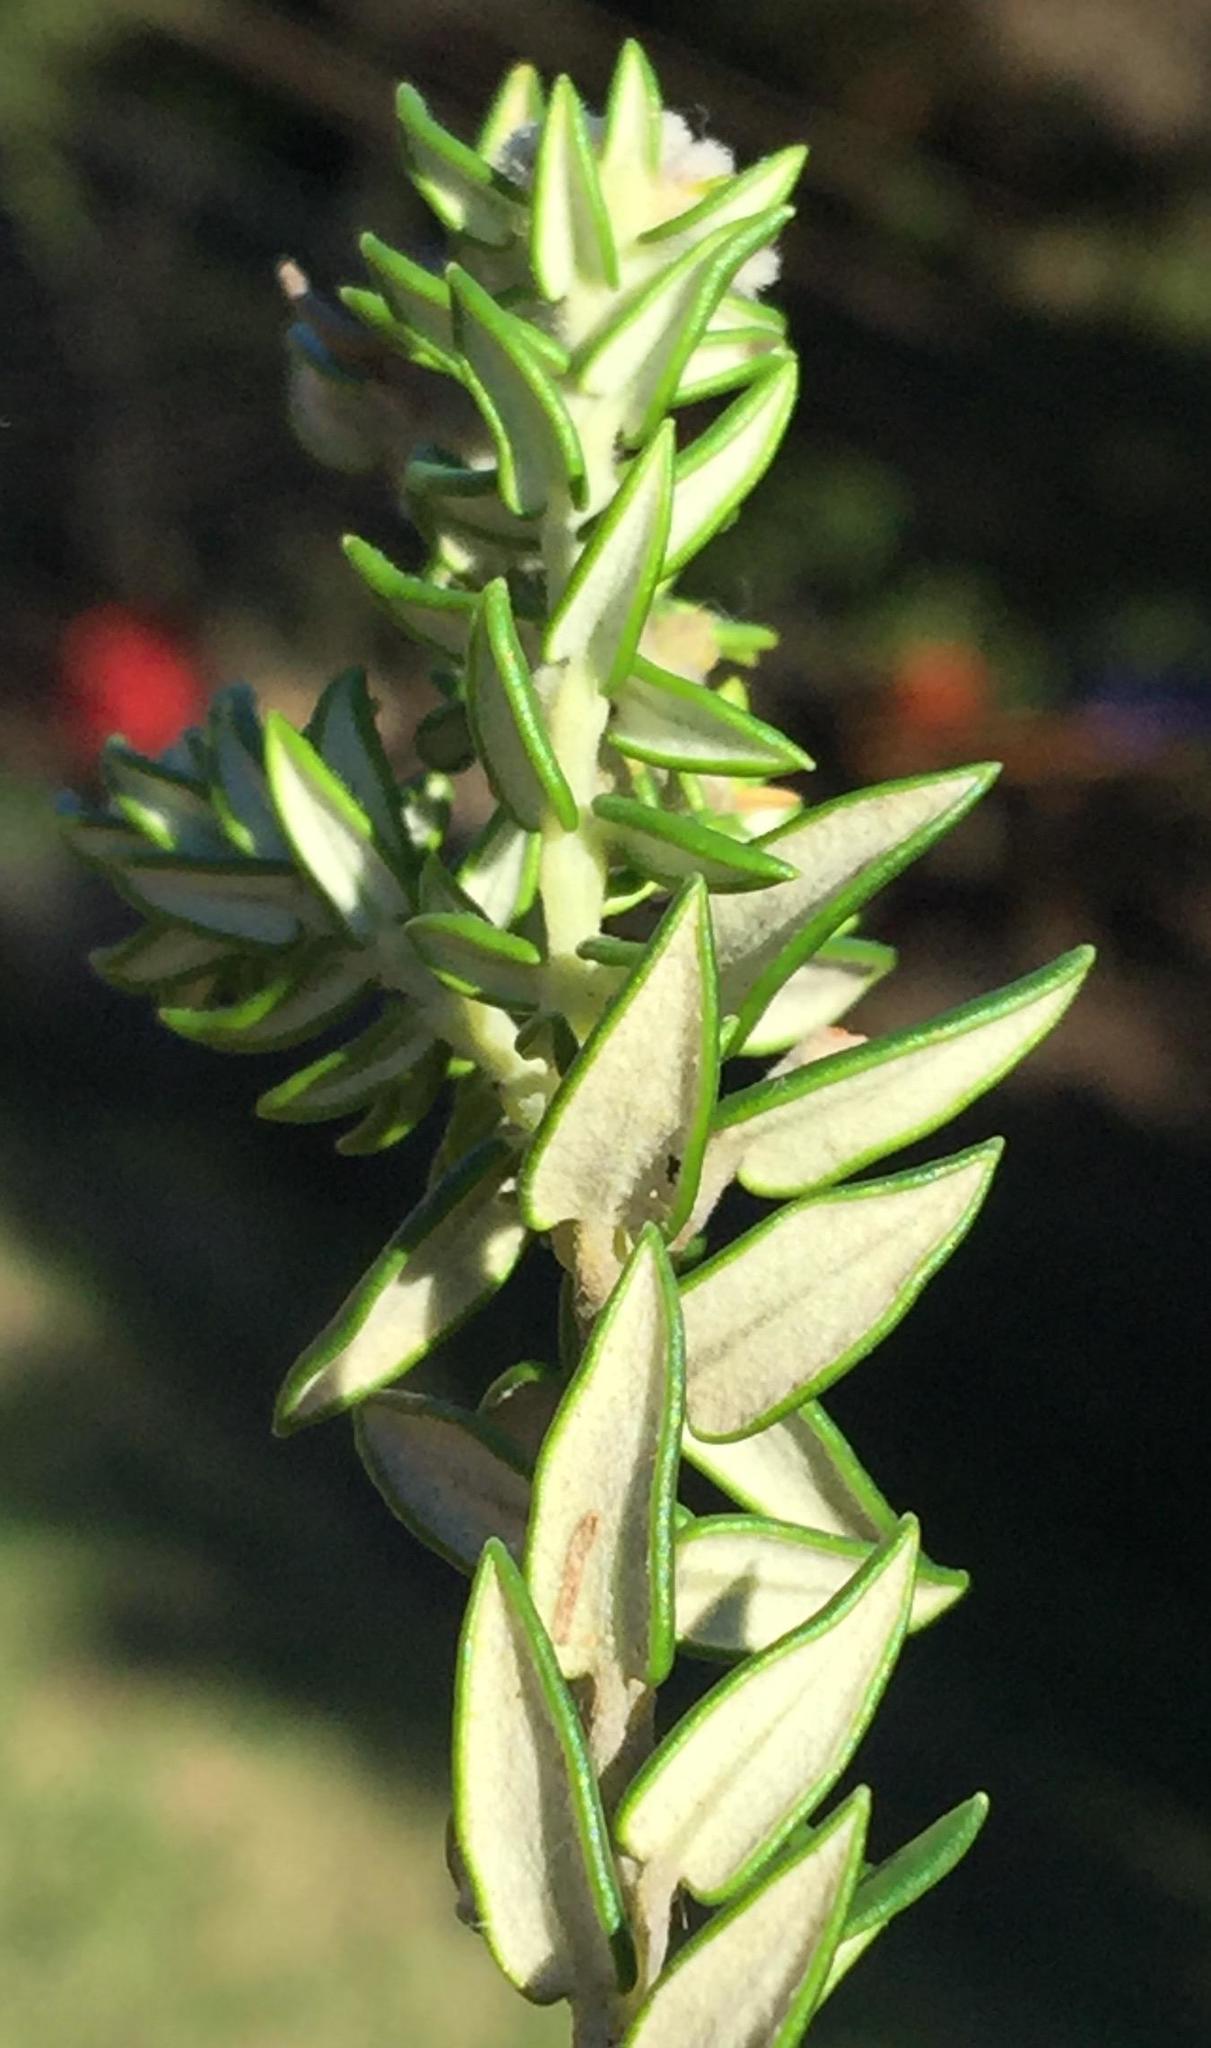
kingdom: Plantae
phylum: Tracheophyta
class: Magnoliopsida
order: Rosales
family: Rhamnaceae
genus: Phylica
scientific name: Phylica litoralis
